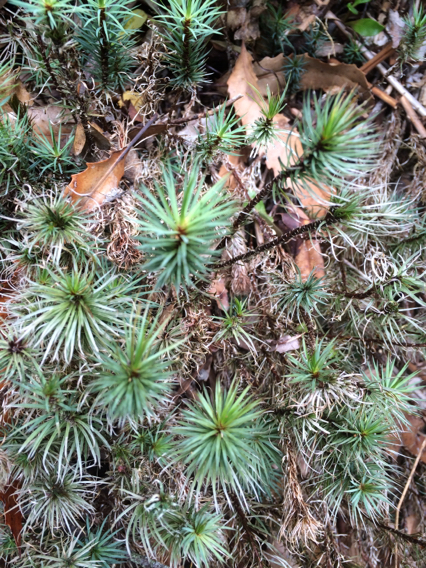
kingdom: Plantae
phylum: Bryophyta
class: Polytrichopsida
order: Polytrichales
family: Polytrichaceae
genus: Dawsonia
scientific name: Dawsonia superba
